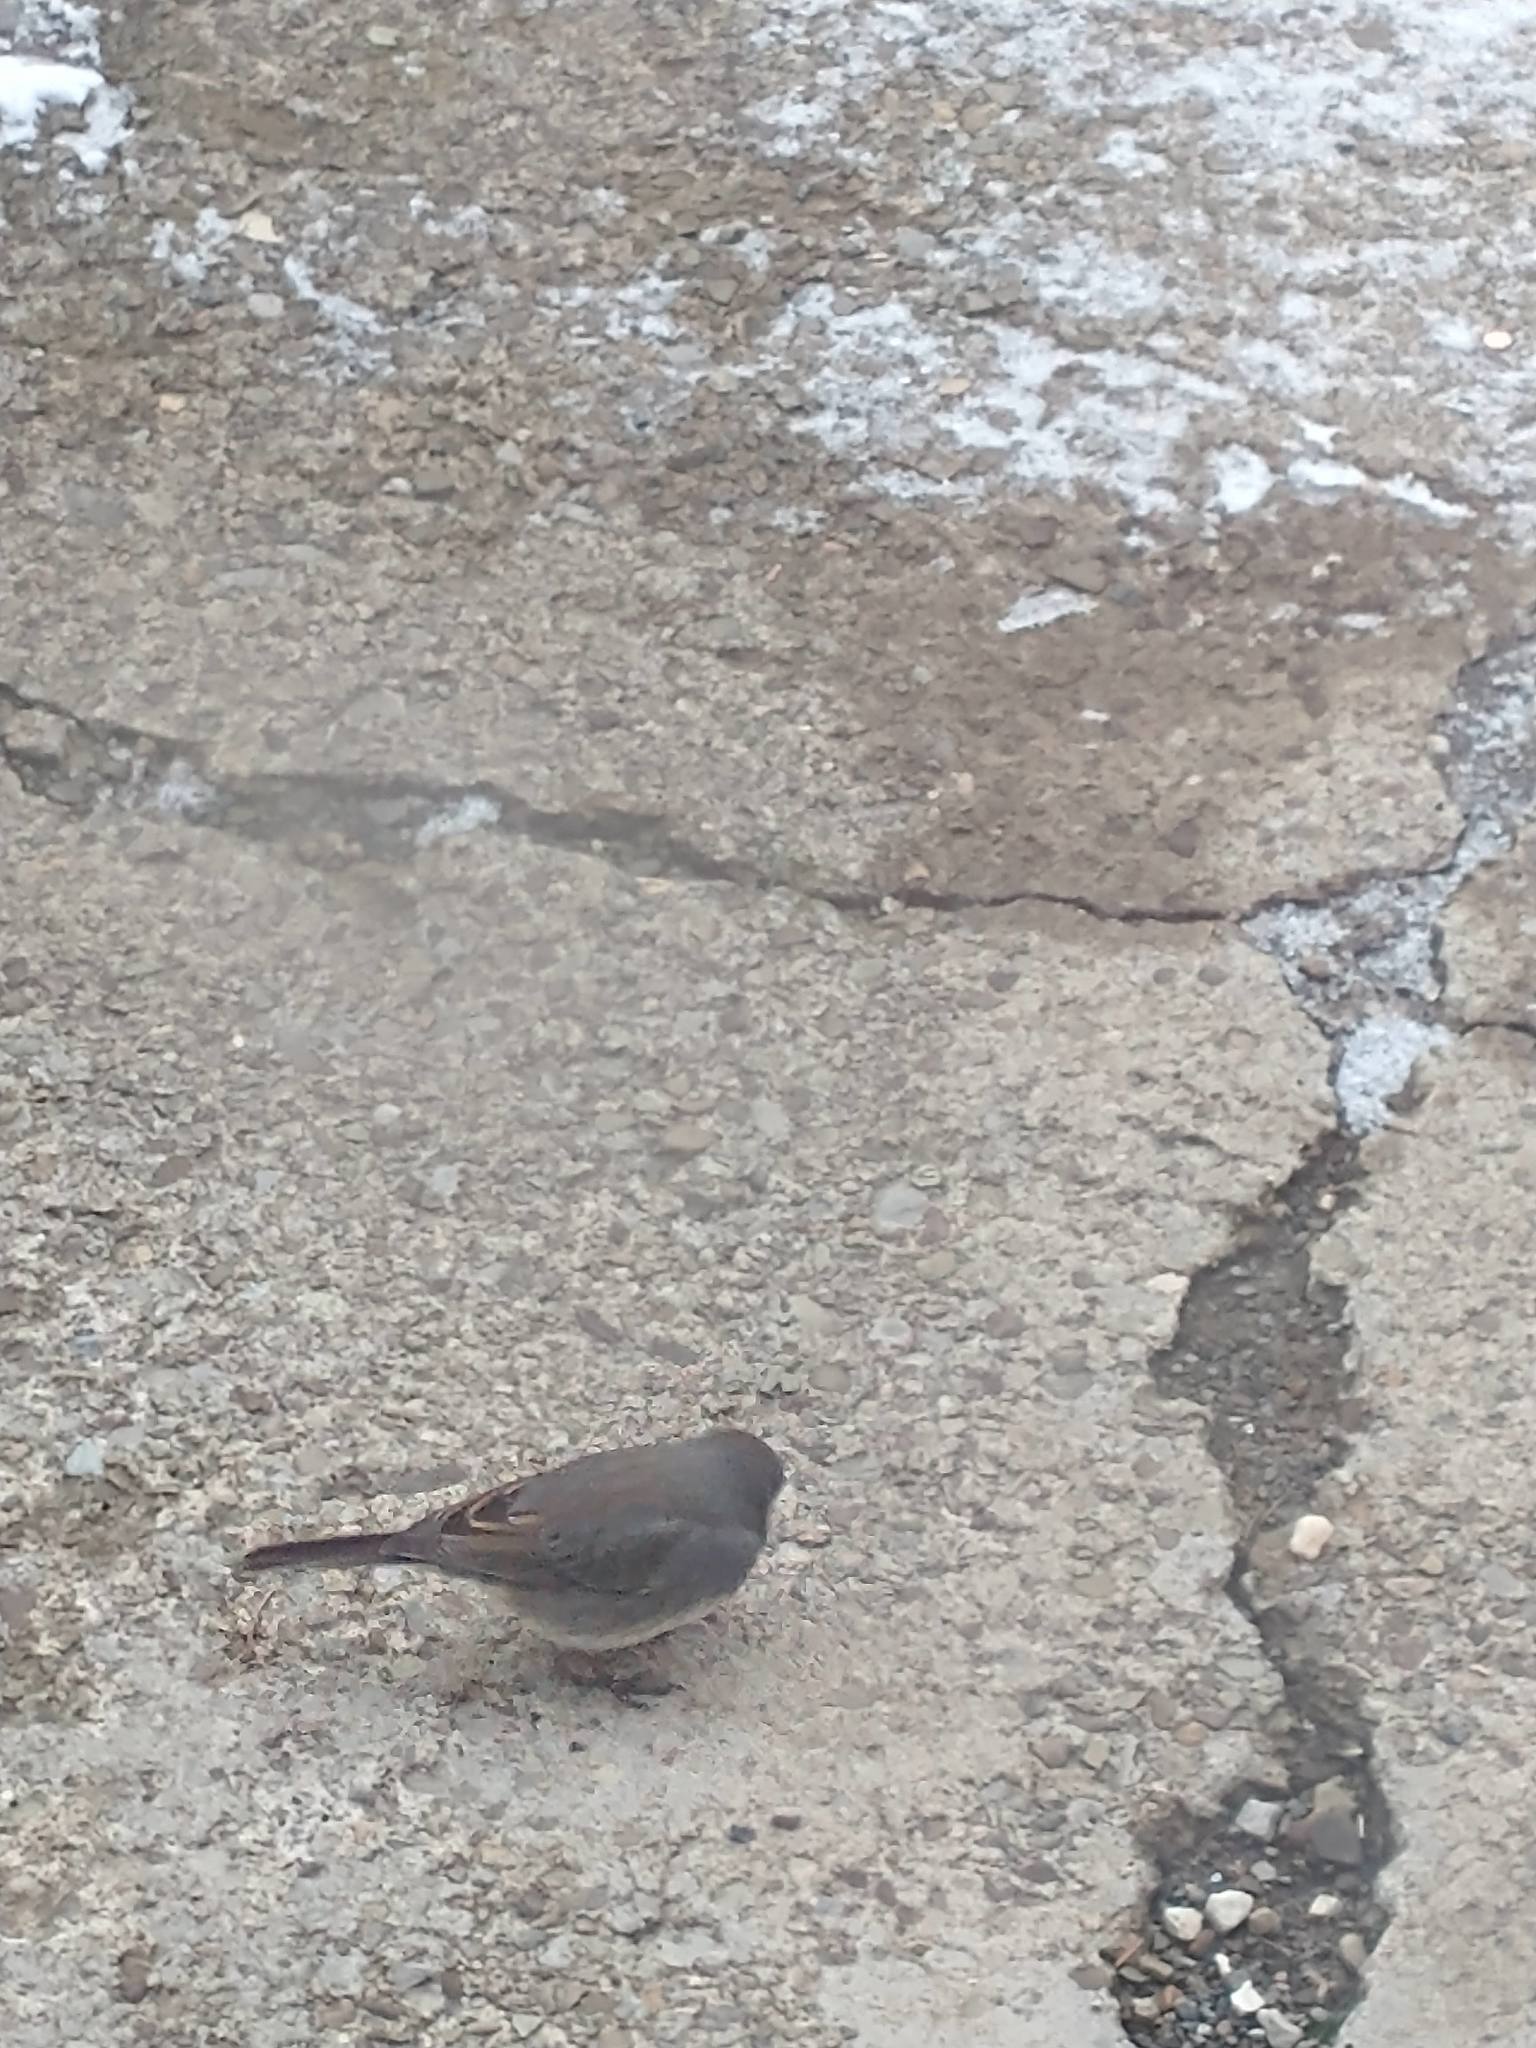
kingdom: Animalia
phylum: Chordata
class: Aves
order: Passeriformes
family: Passerellidae
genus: Junco
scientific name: Junco hyemalis
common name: Dark-eyed junco
